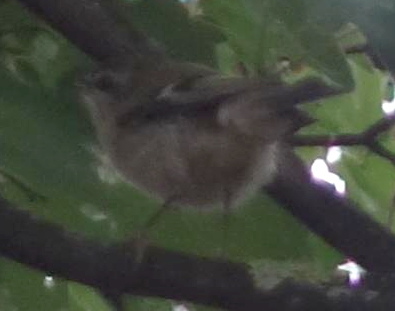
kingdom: Animalia
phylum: Chordata
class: Aves
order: Passeriformes
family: Regulidae
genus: Regulus
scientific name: Regulus regulus
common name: Goldcrest
